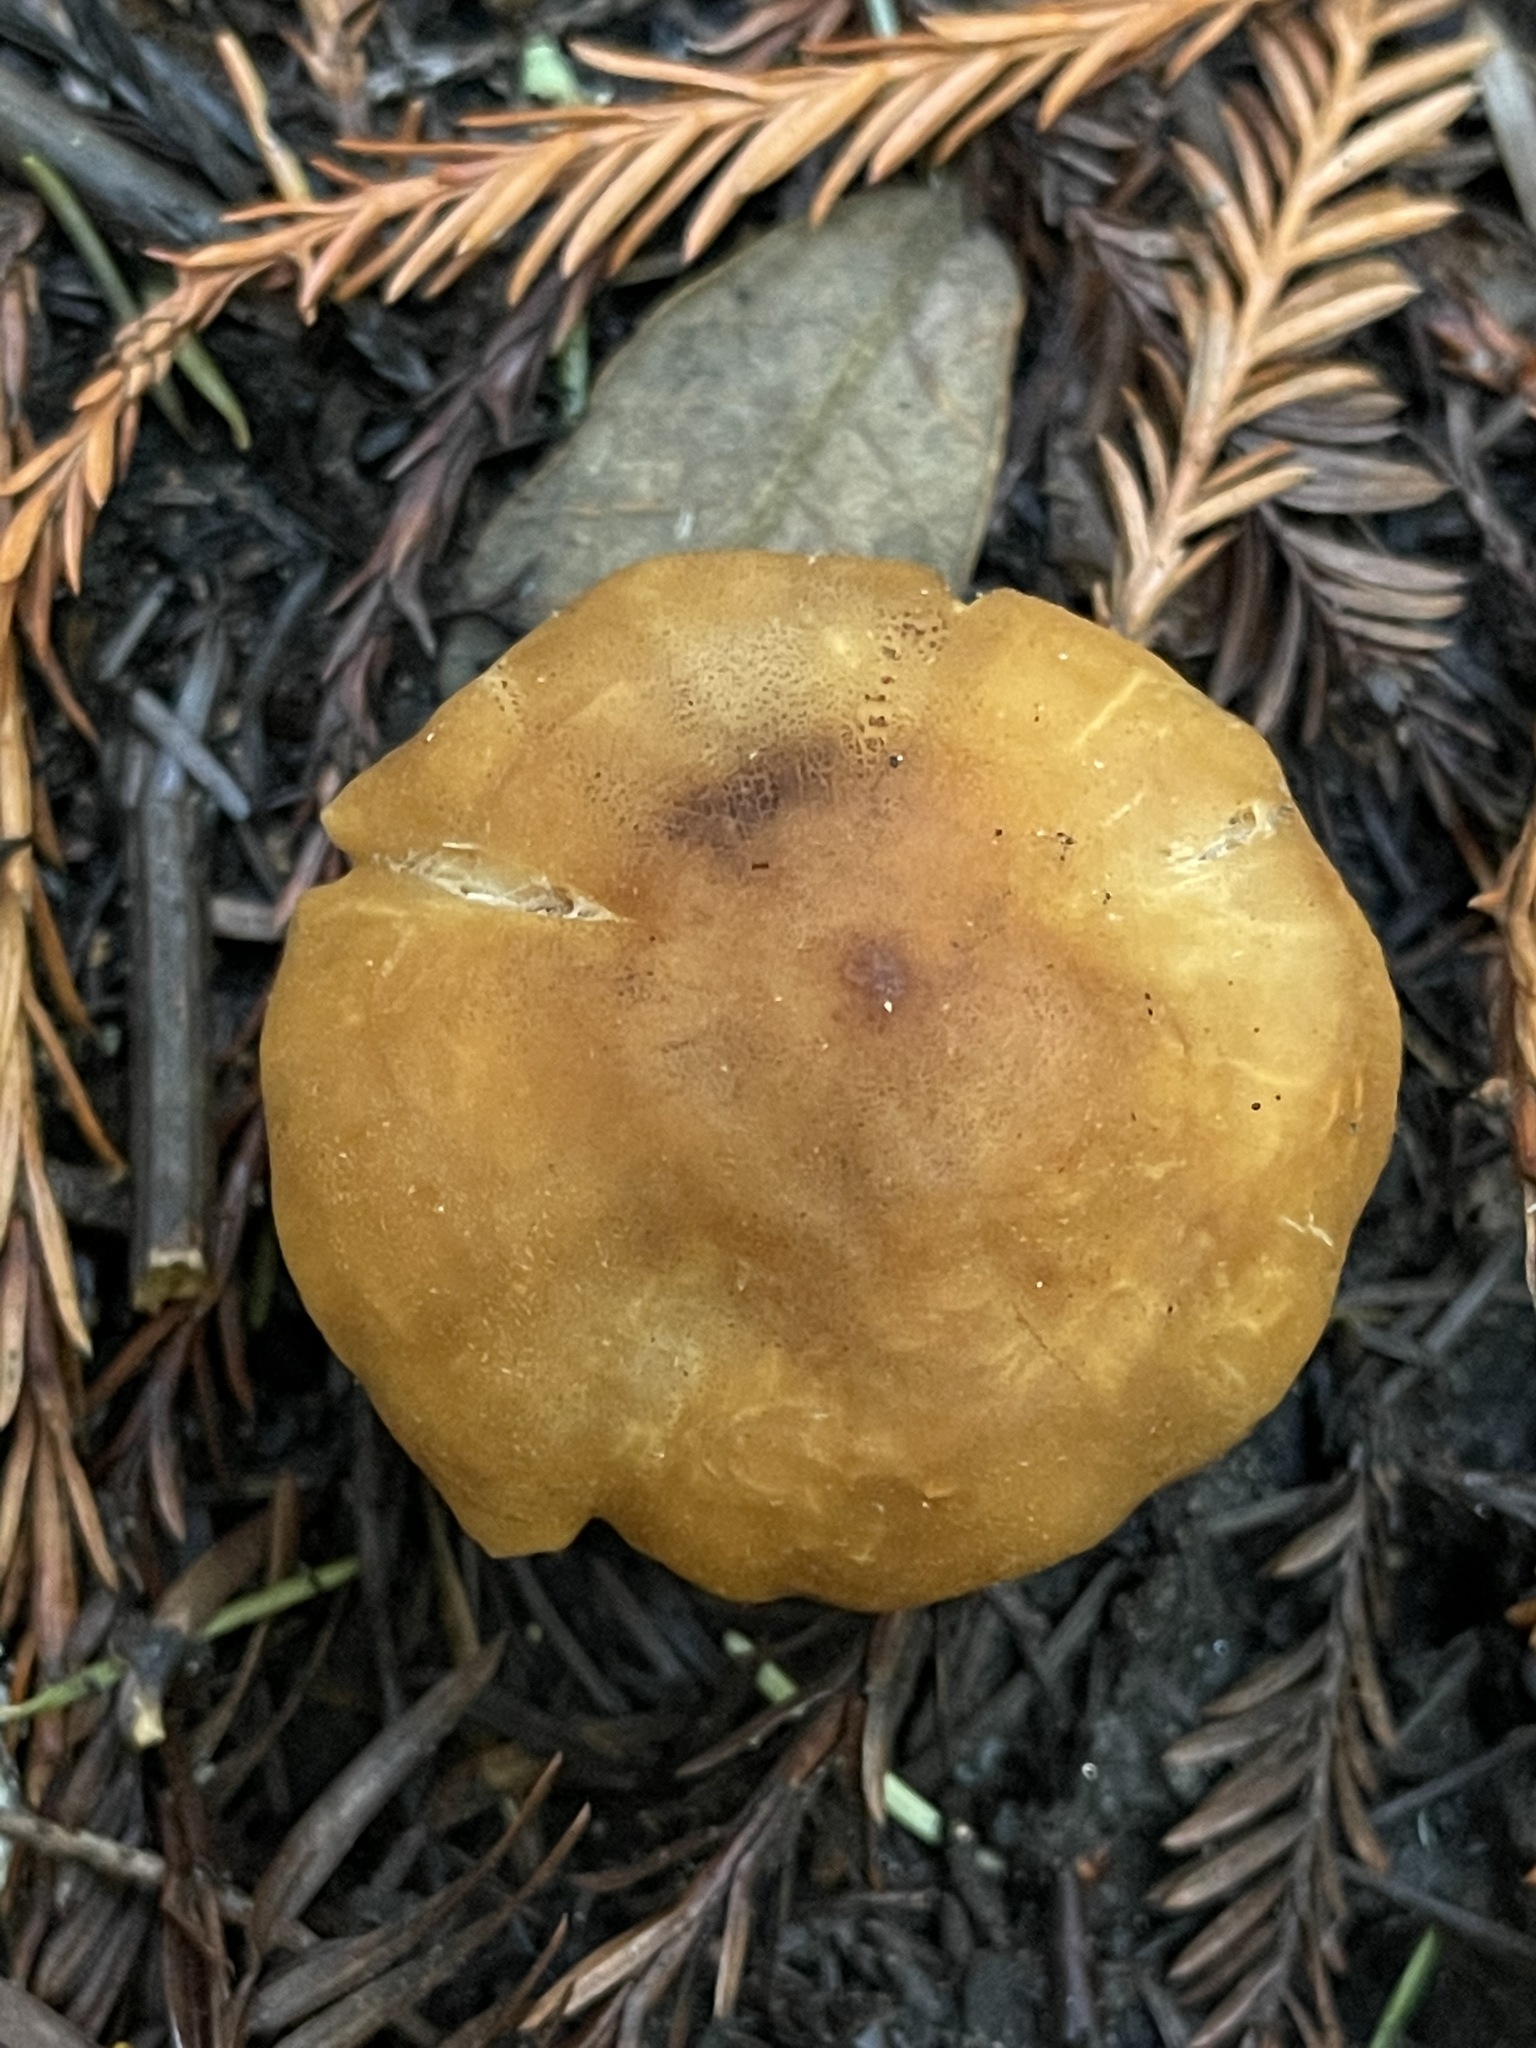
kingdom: Fungi
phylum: Basidiomycota
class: Agaricomycetes
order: Agaricales
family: Tricholomataceae
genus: Caulorhiza
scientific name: Caulorhiza umbonata
